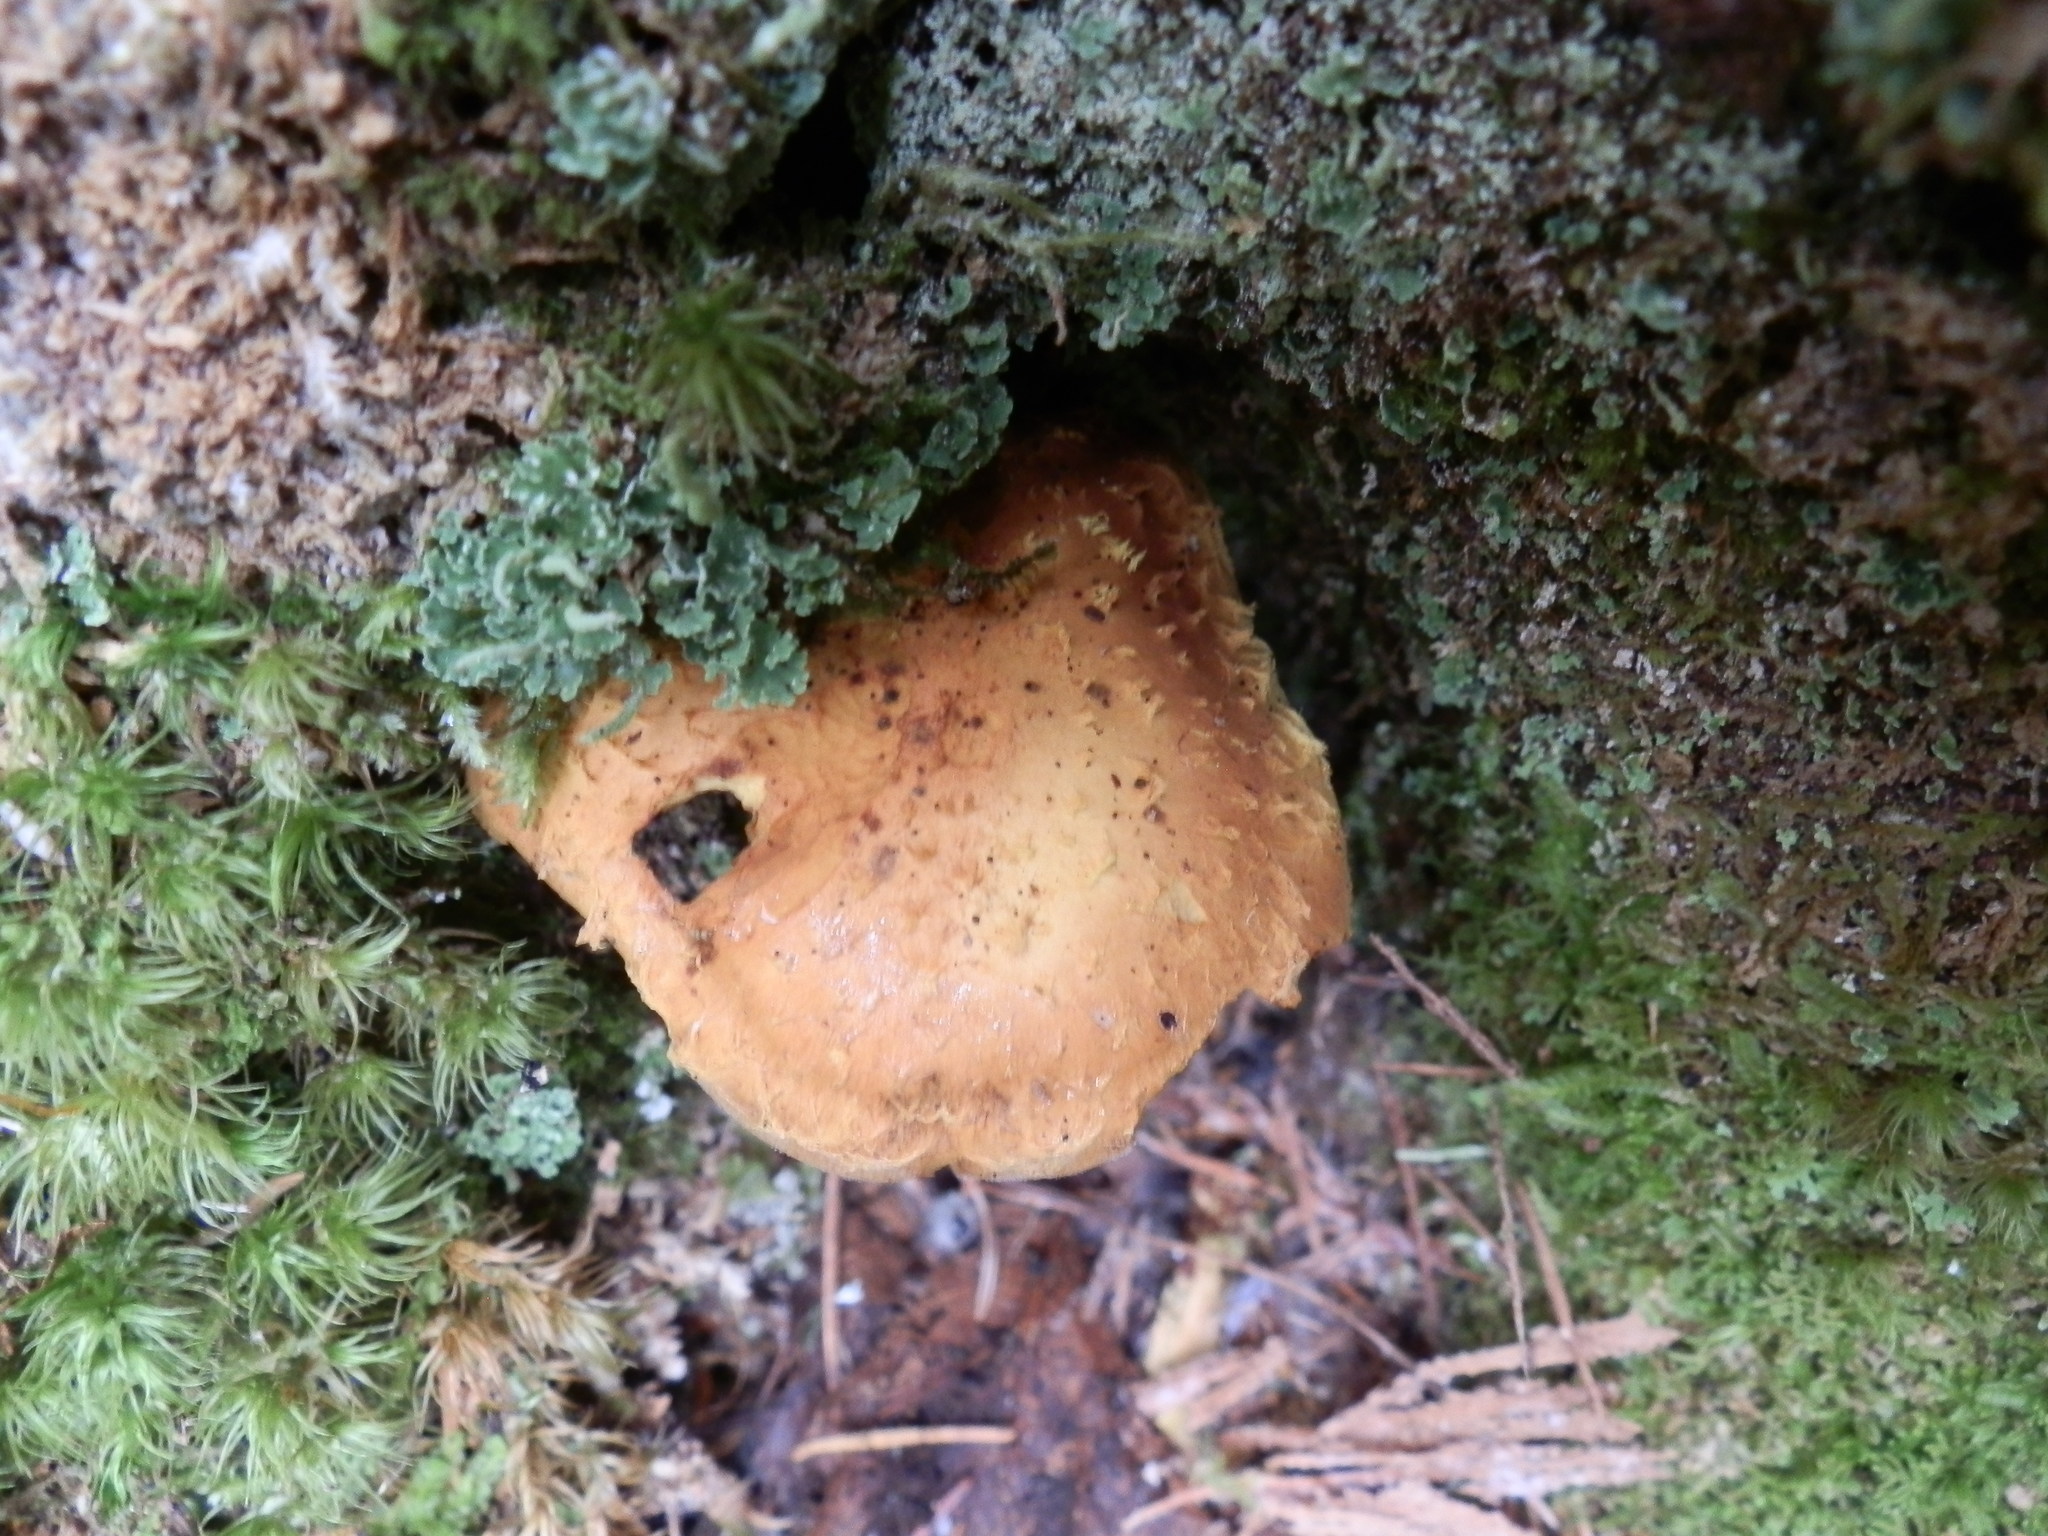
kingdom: Fungi
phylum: Basidiomycota
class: Agaricomycetes
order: Agaricales
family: Strophariaceae
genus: Pholiota
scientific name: Pholiota flammans
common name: Flaming scalycap
